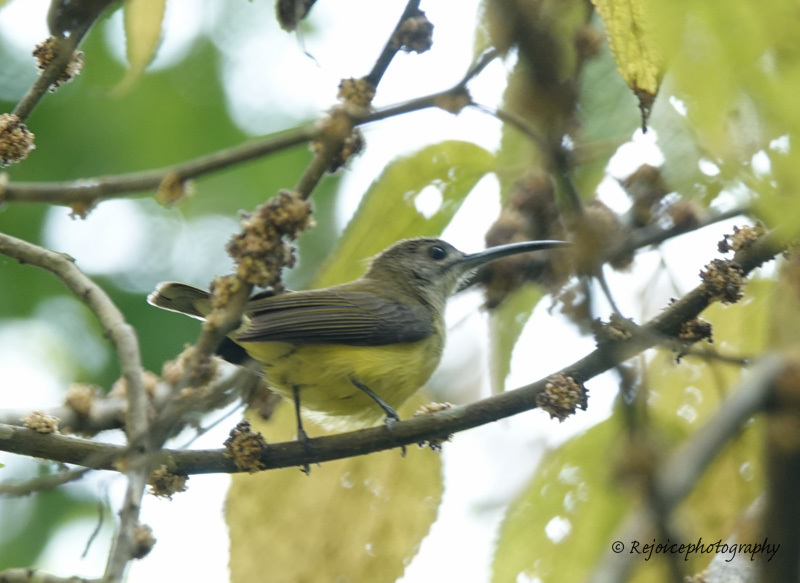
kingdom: Animalia
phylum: Chordata
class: Aves
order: Passeriformes
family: Nectariniidae
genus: Arachnothera
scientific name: Arachnothera longirostra
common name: Little spiderhunter
